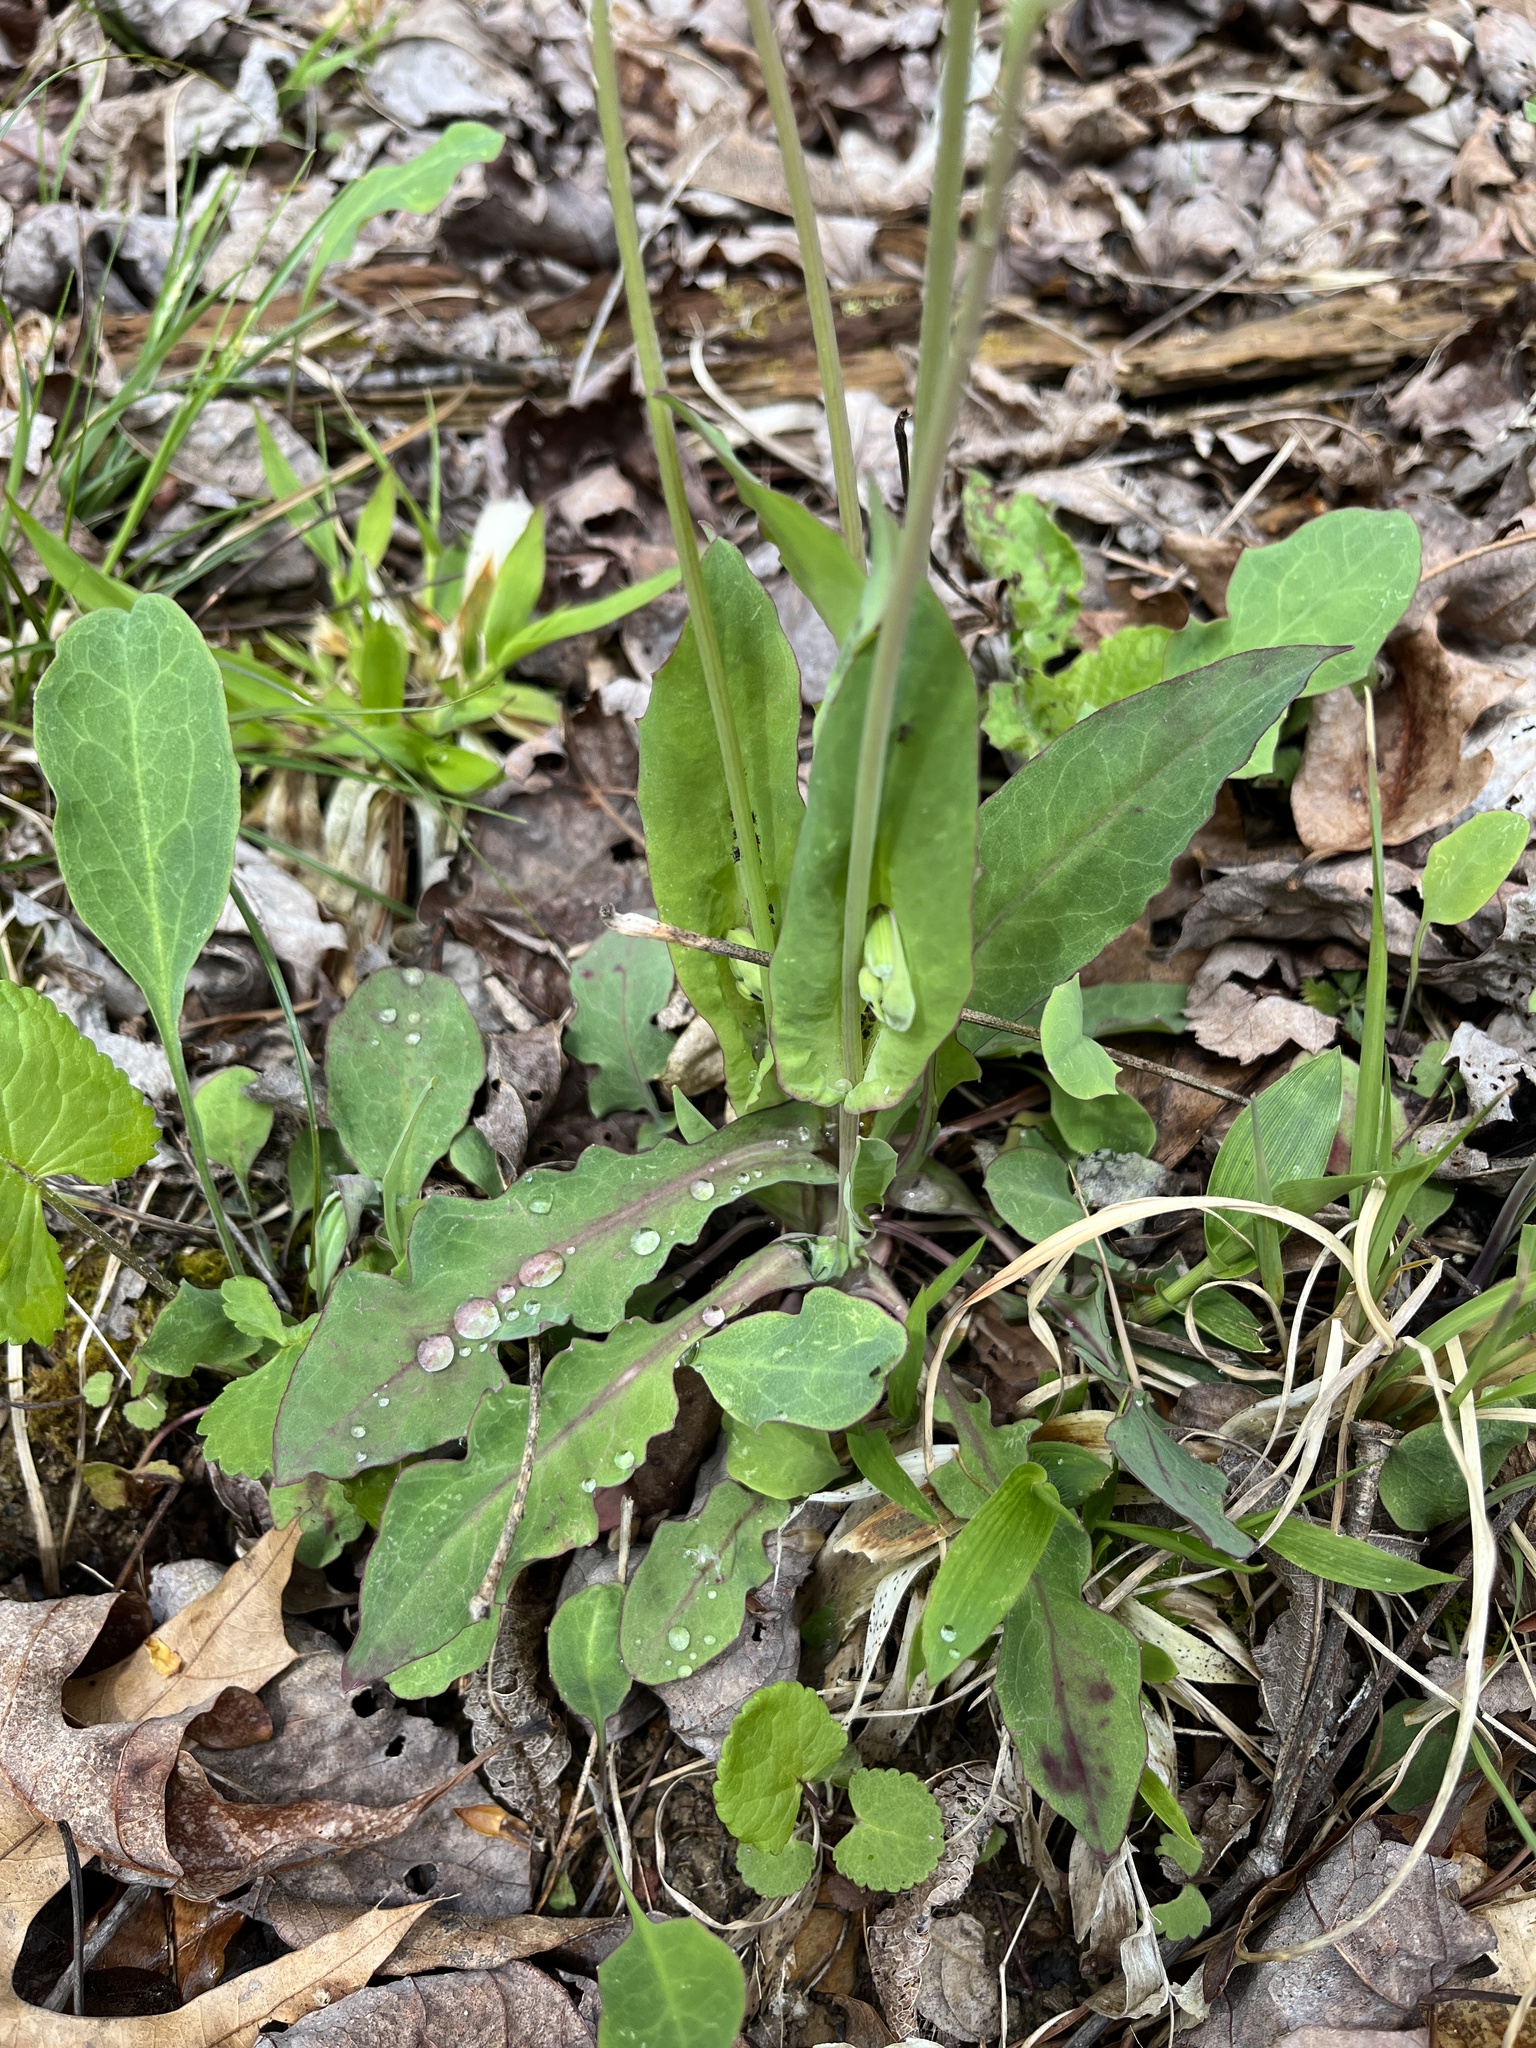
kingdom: Plantae
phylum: Tracheophyta
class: Magnoliopsida
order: Asterales
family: Asteraceae
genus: Krigia
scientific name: Krigia biflora
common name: Orange dwarf-dandelion
